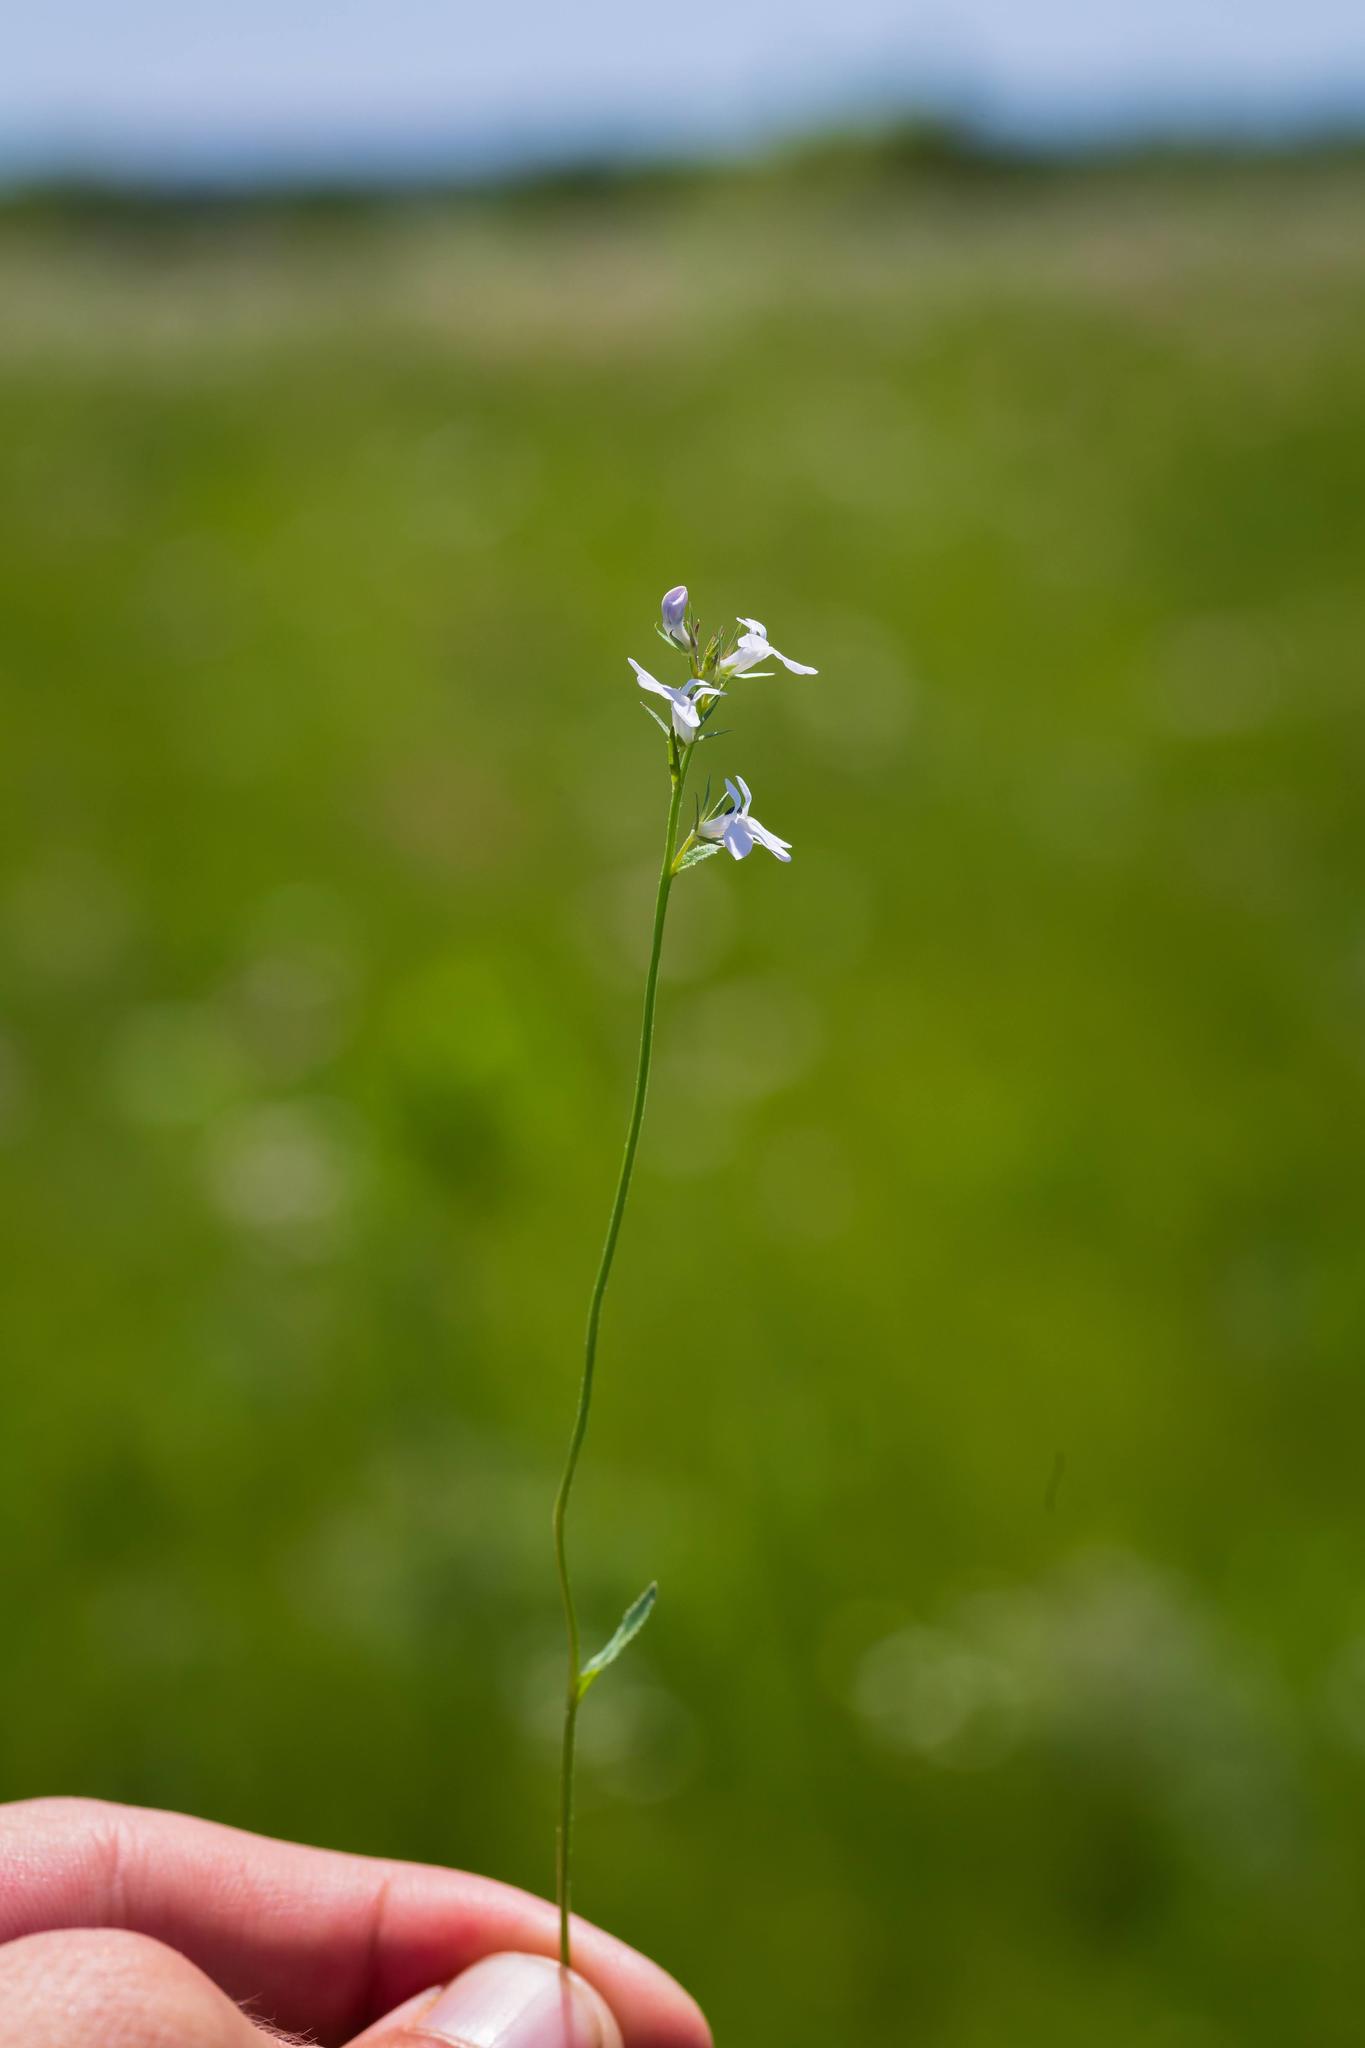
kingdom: Plantae
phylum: Tracheophyta
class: Magnoliopsida
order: Asterales
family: Campanulaceae
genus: Lobelia
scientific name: Lobelia spicata
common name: Pale-spike lobelia
